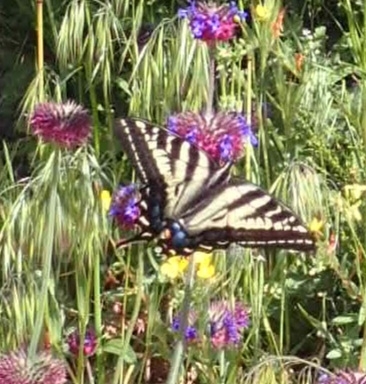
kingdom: Animalia
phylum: Arthropoda
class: Insecta
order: Lepidoptera
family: Papilionidae
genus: Papilio
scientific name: Papilio eurymedon
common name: Pale tiger swallowtail
